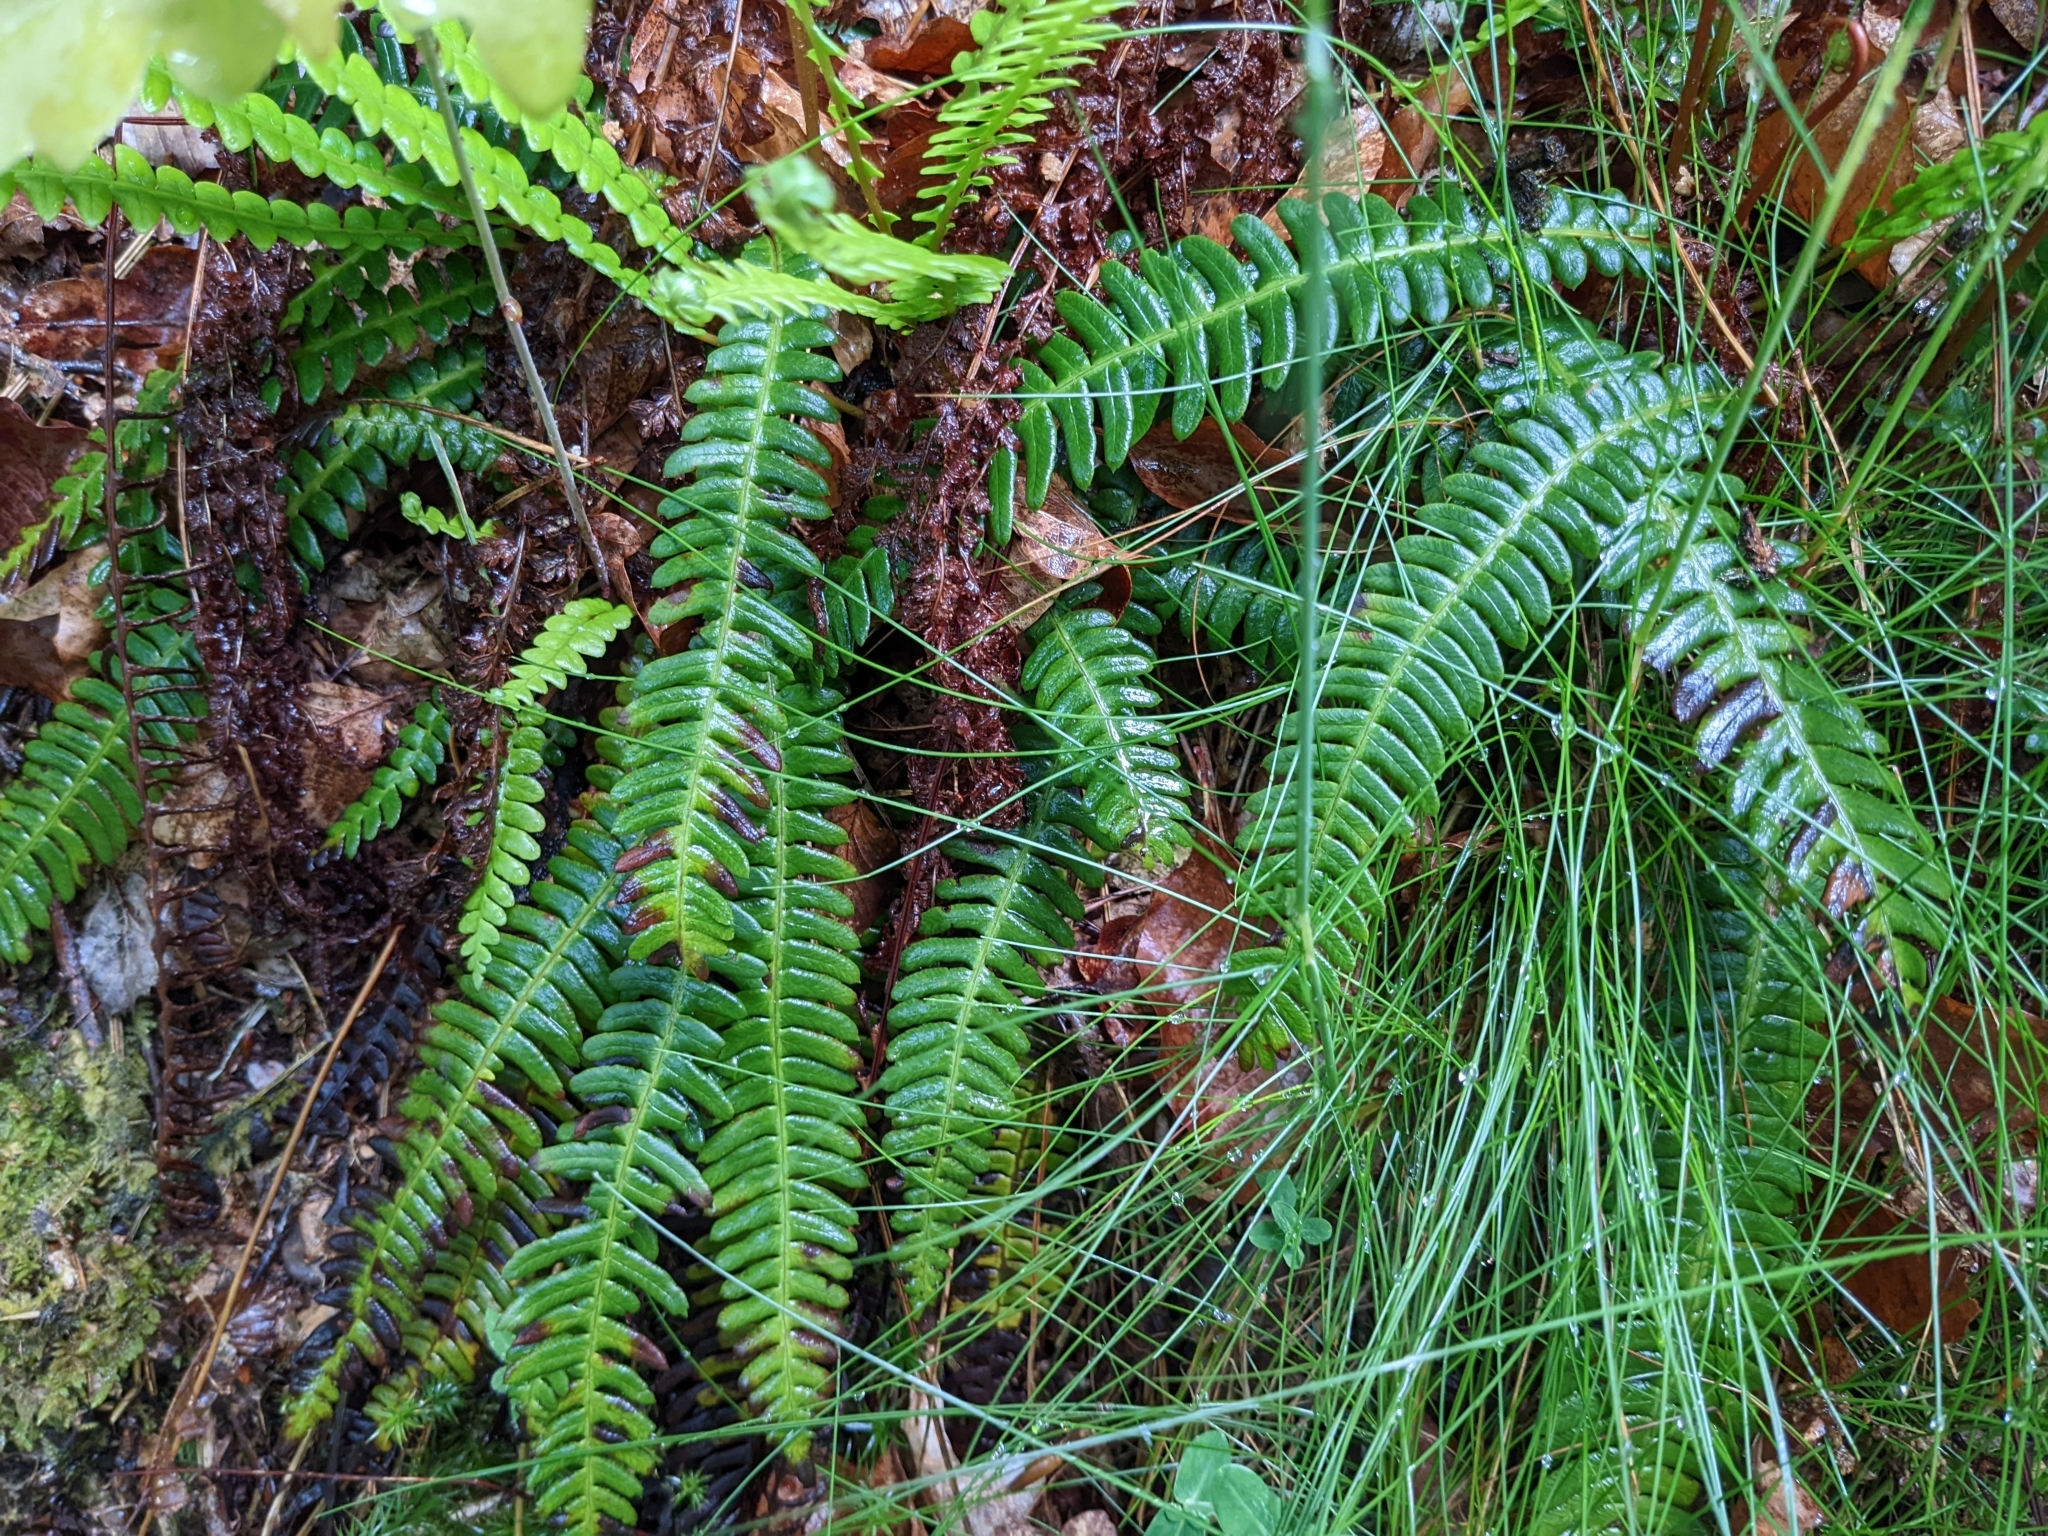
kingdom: Plantae
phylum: Tracheophyta
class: Polypodiopsida
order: Polypodiales
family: Blechnaceae
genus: Struthiopteris
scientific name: Struthiopteris spicant
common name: Deer fern
